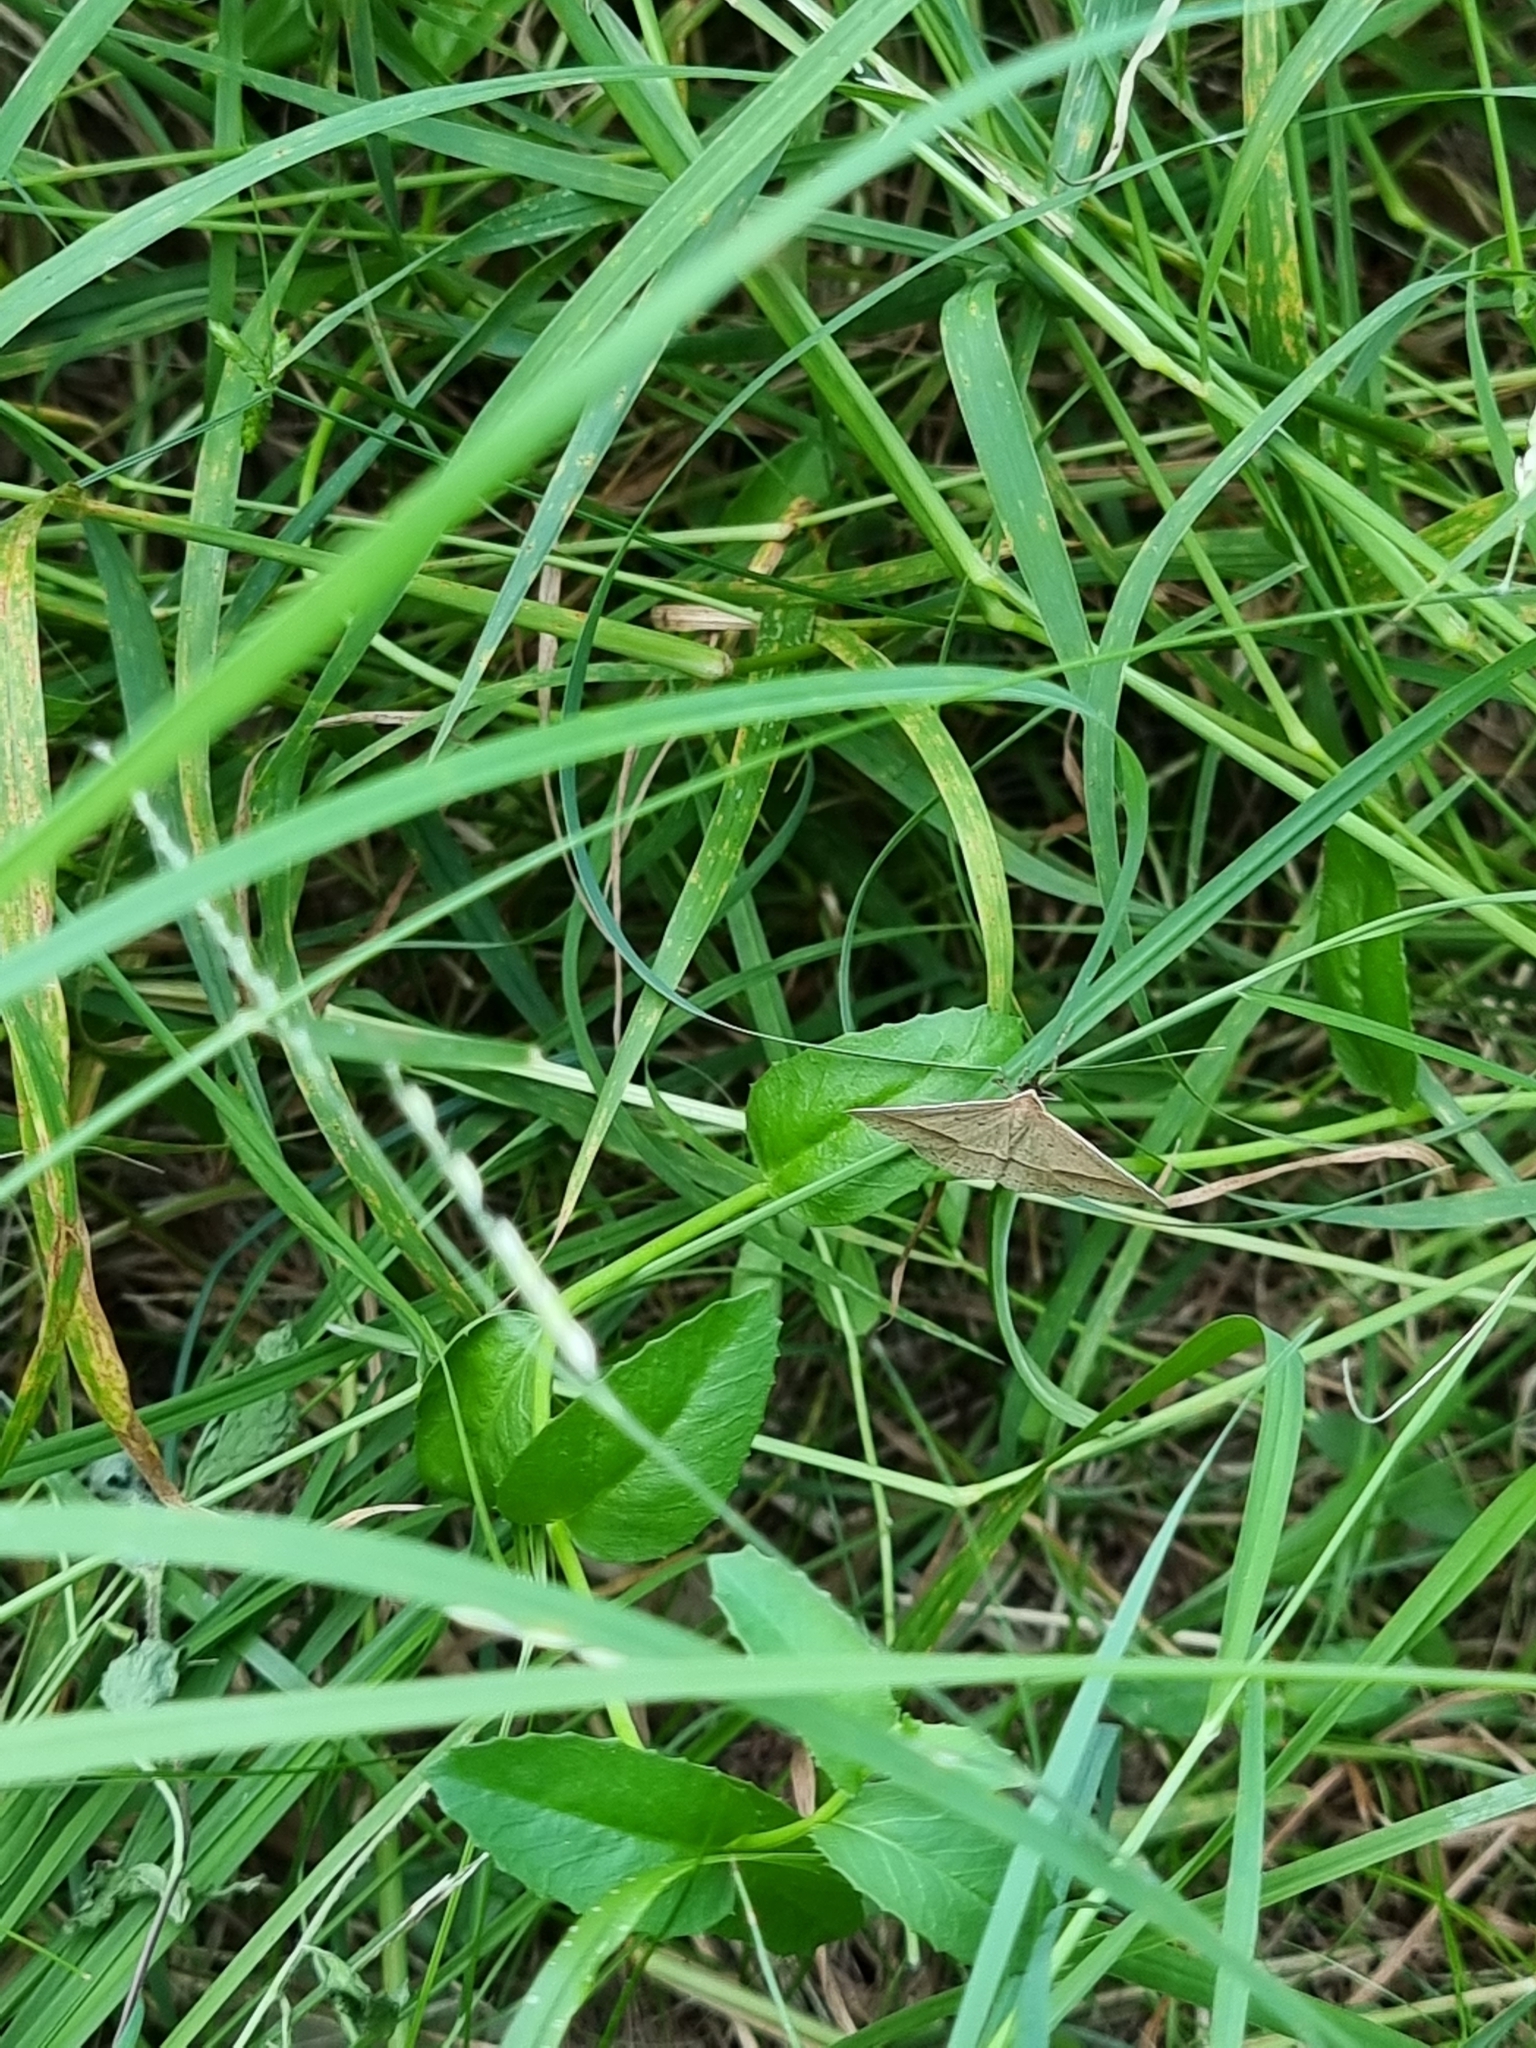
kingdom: Animalia
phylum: Arthropoda
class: Insecta
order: Lepidoptera
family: Geometridae
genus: Epidesmia
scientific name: Epidesmia tryxaria
